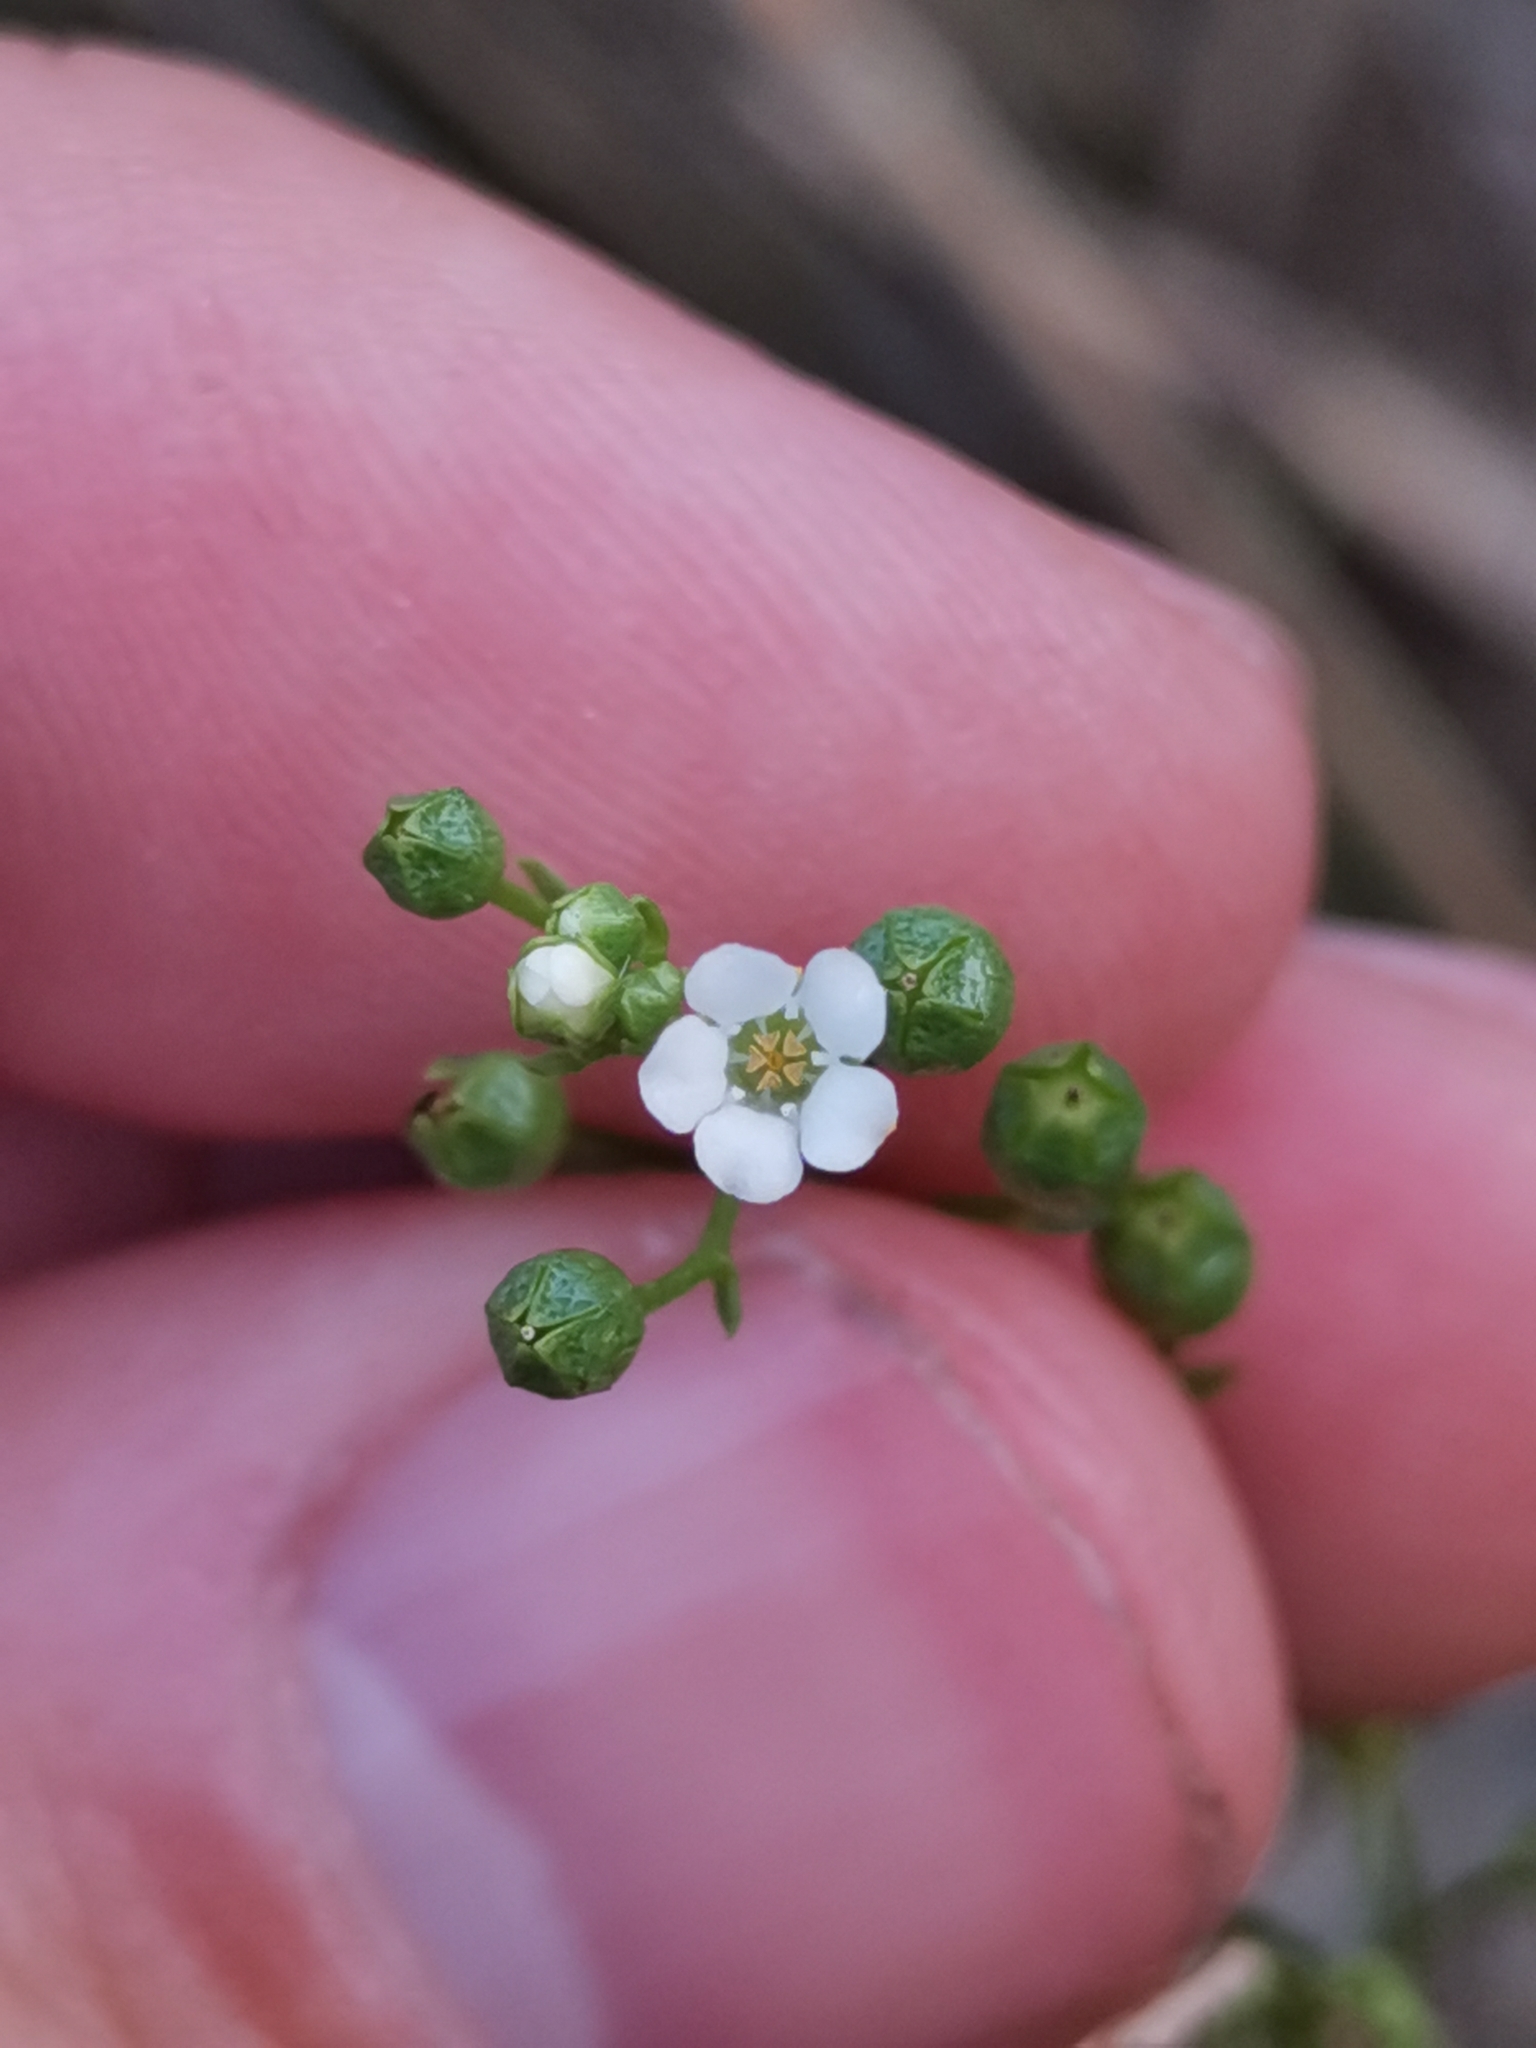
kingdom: Plantae
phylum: Tracheophyta
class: Magnoliopsida
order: Ericales
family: Primulaceae
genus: Samolus
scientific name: Samolus valerandi
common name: Brookweed
